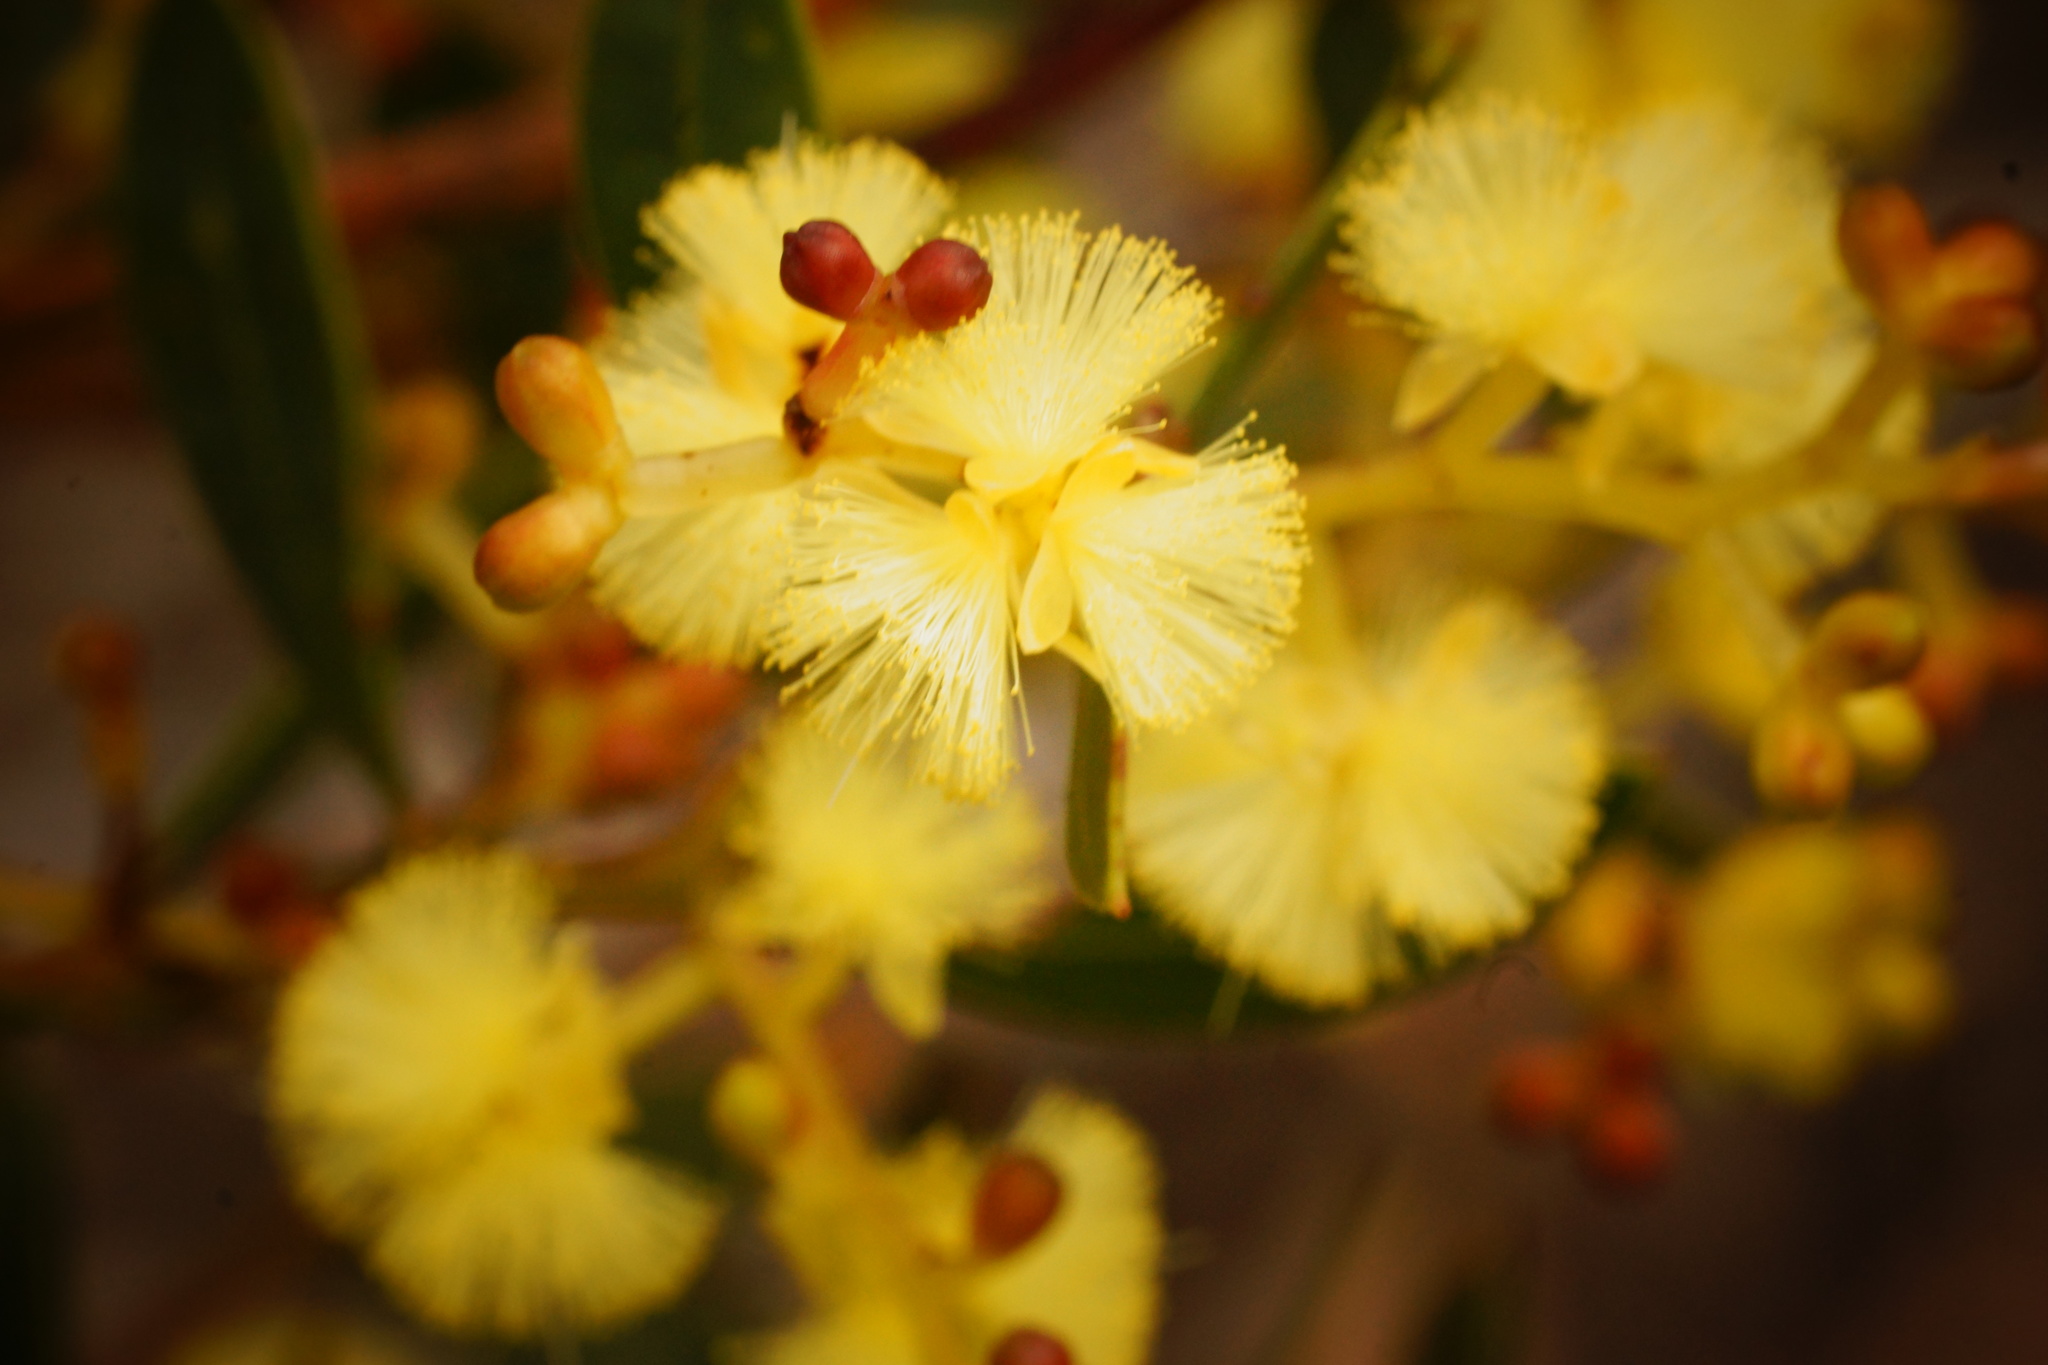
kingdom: Plantae
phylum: Tracheophyta
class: Magnoliopsida
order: Fabales
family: Fabaceae
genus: Acacia
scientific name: Acacia myrtifolia
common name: Myrtle wattle
